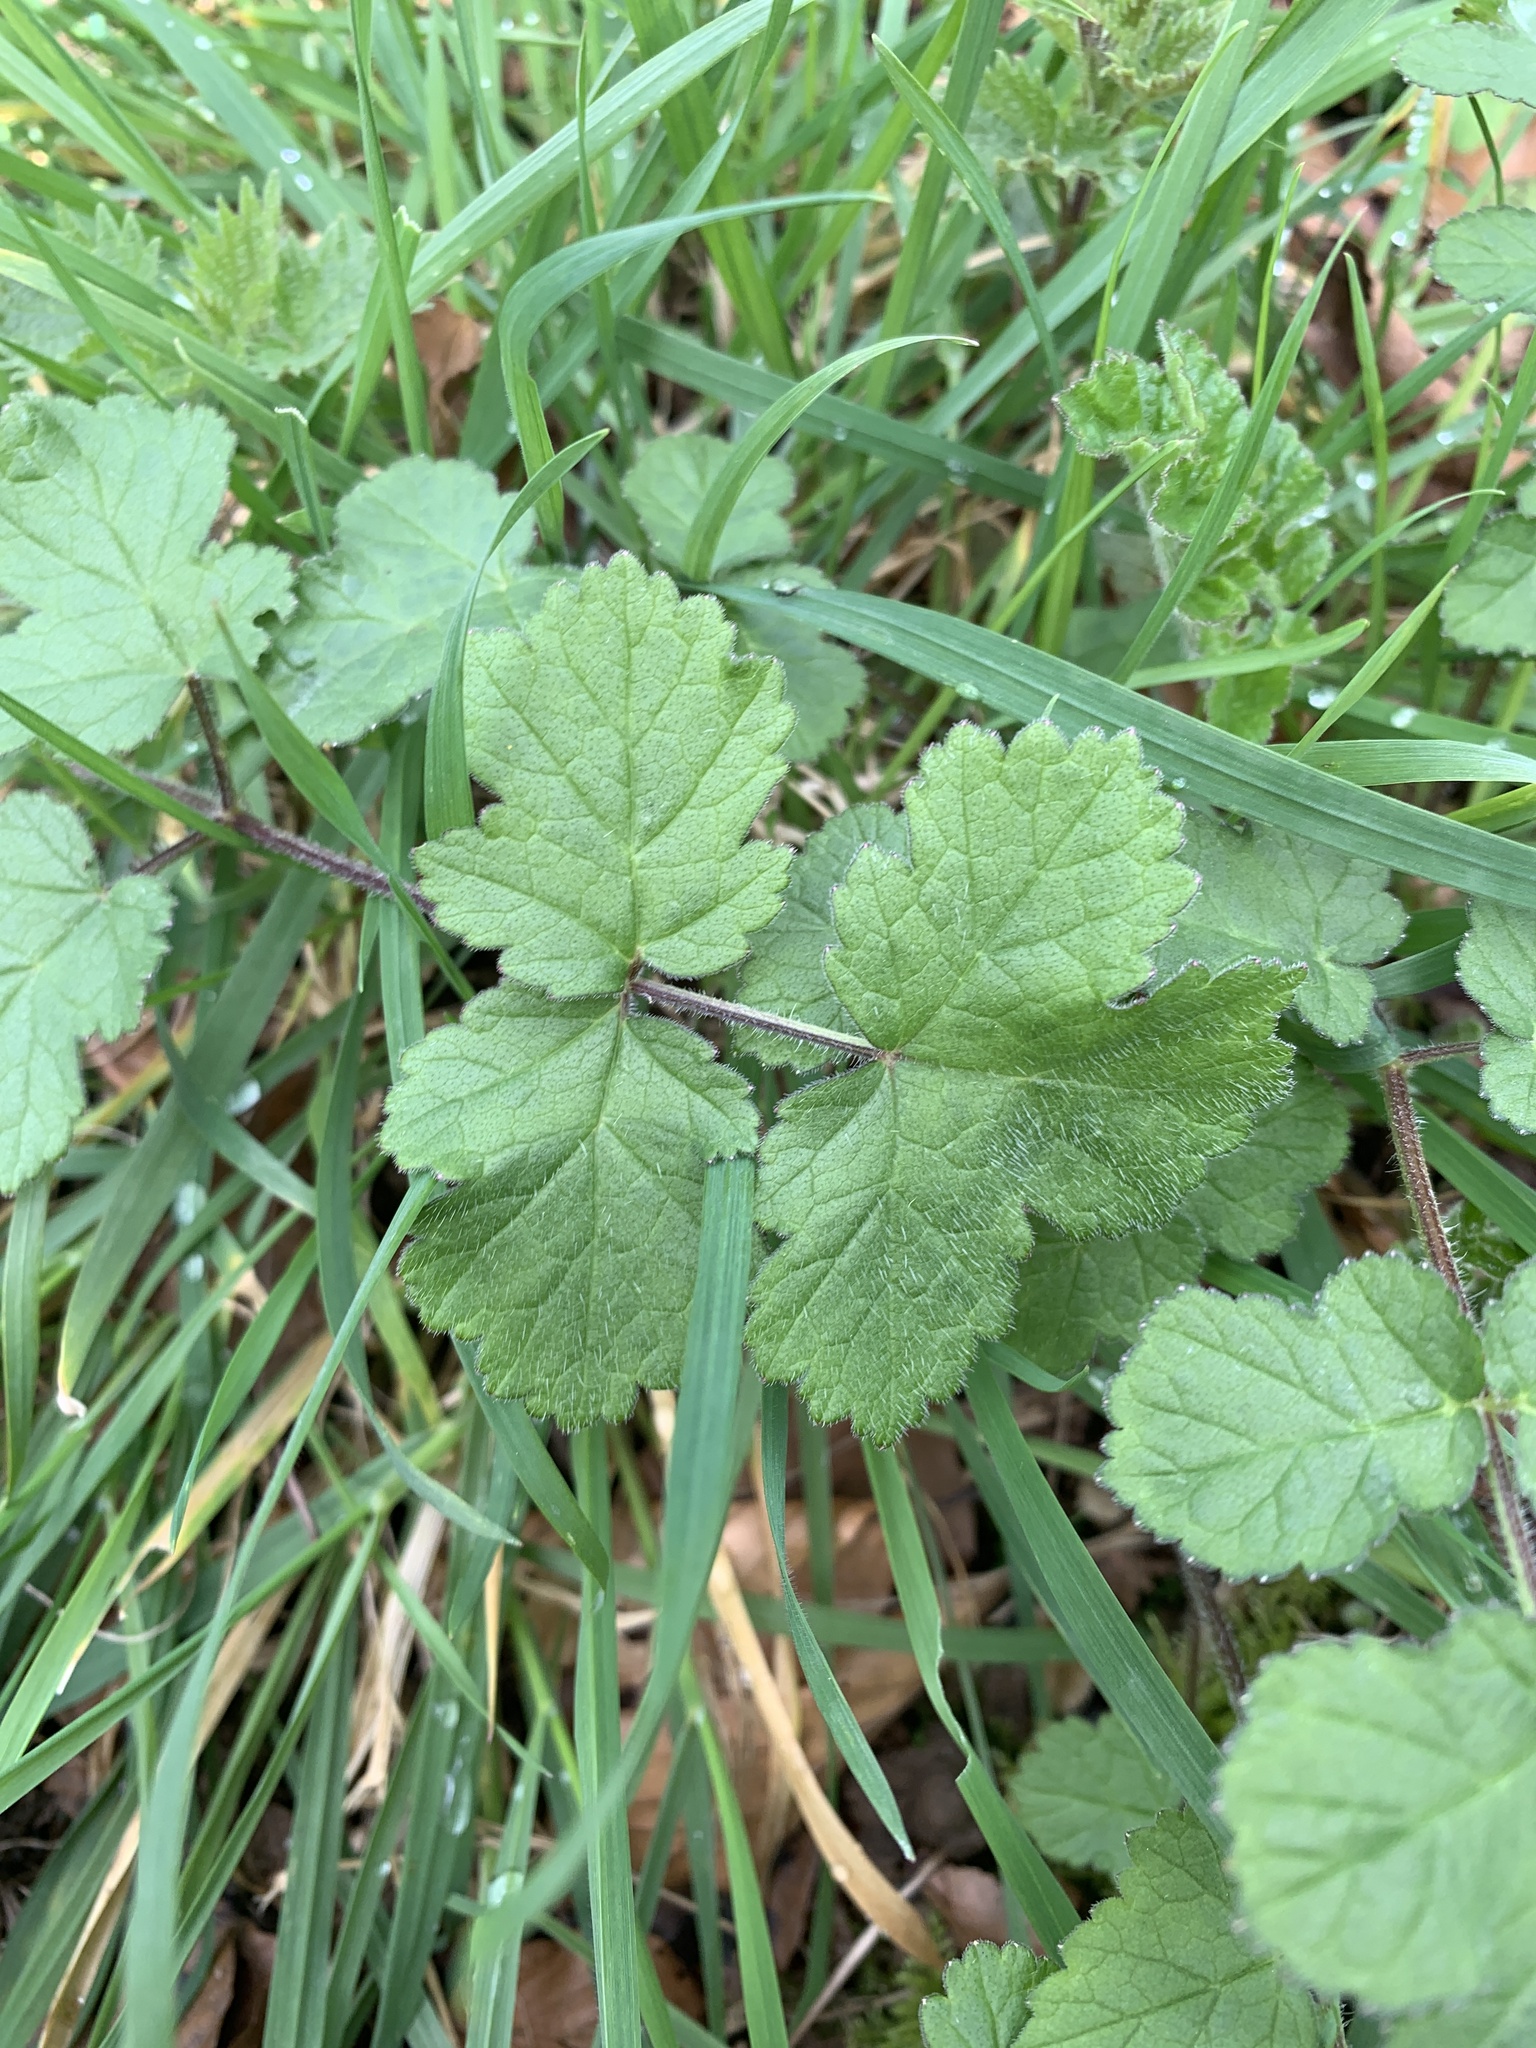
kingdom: Plantae
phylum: Tracheophyta
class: Magnoliopsida
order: Apiales
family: Apiaceae
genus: Heracleum
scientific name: Heracleum sphondylium
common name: Hogweed
